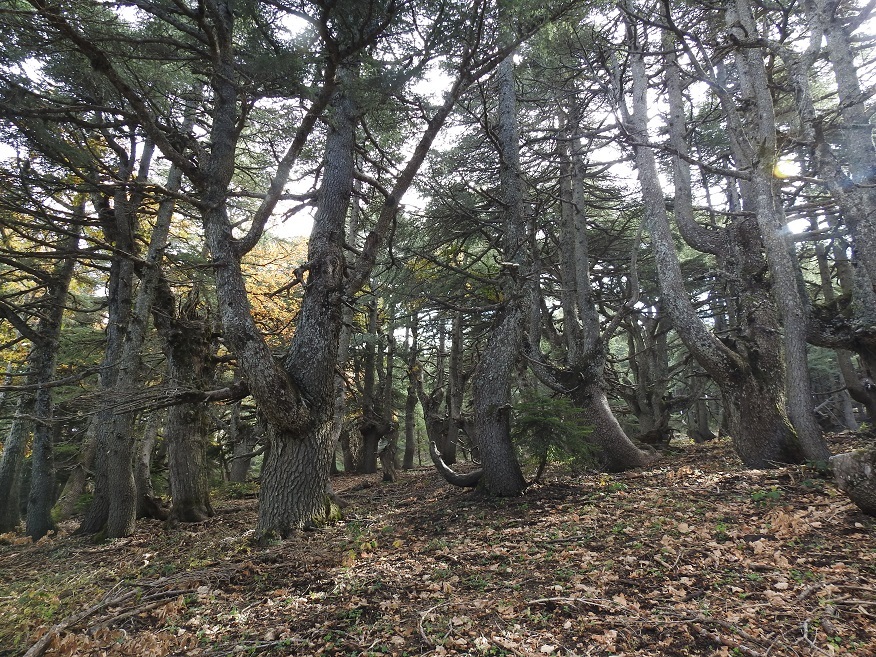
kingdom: Plantae
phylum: Tracheophyta
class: Pinopsida
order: Pinales
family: Pinaceae
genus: Cedrus
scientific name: Cedrus atlantica
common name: Atlas cedar
